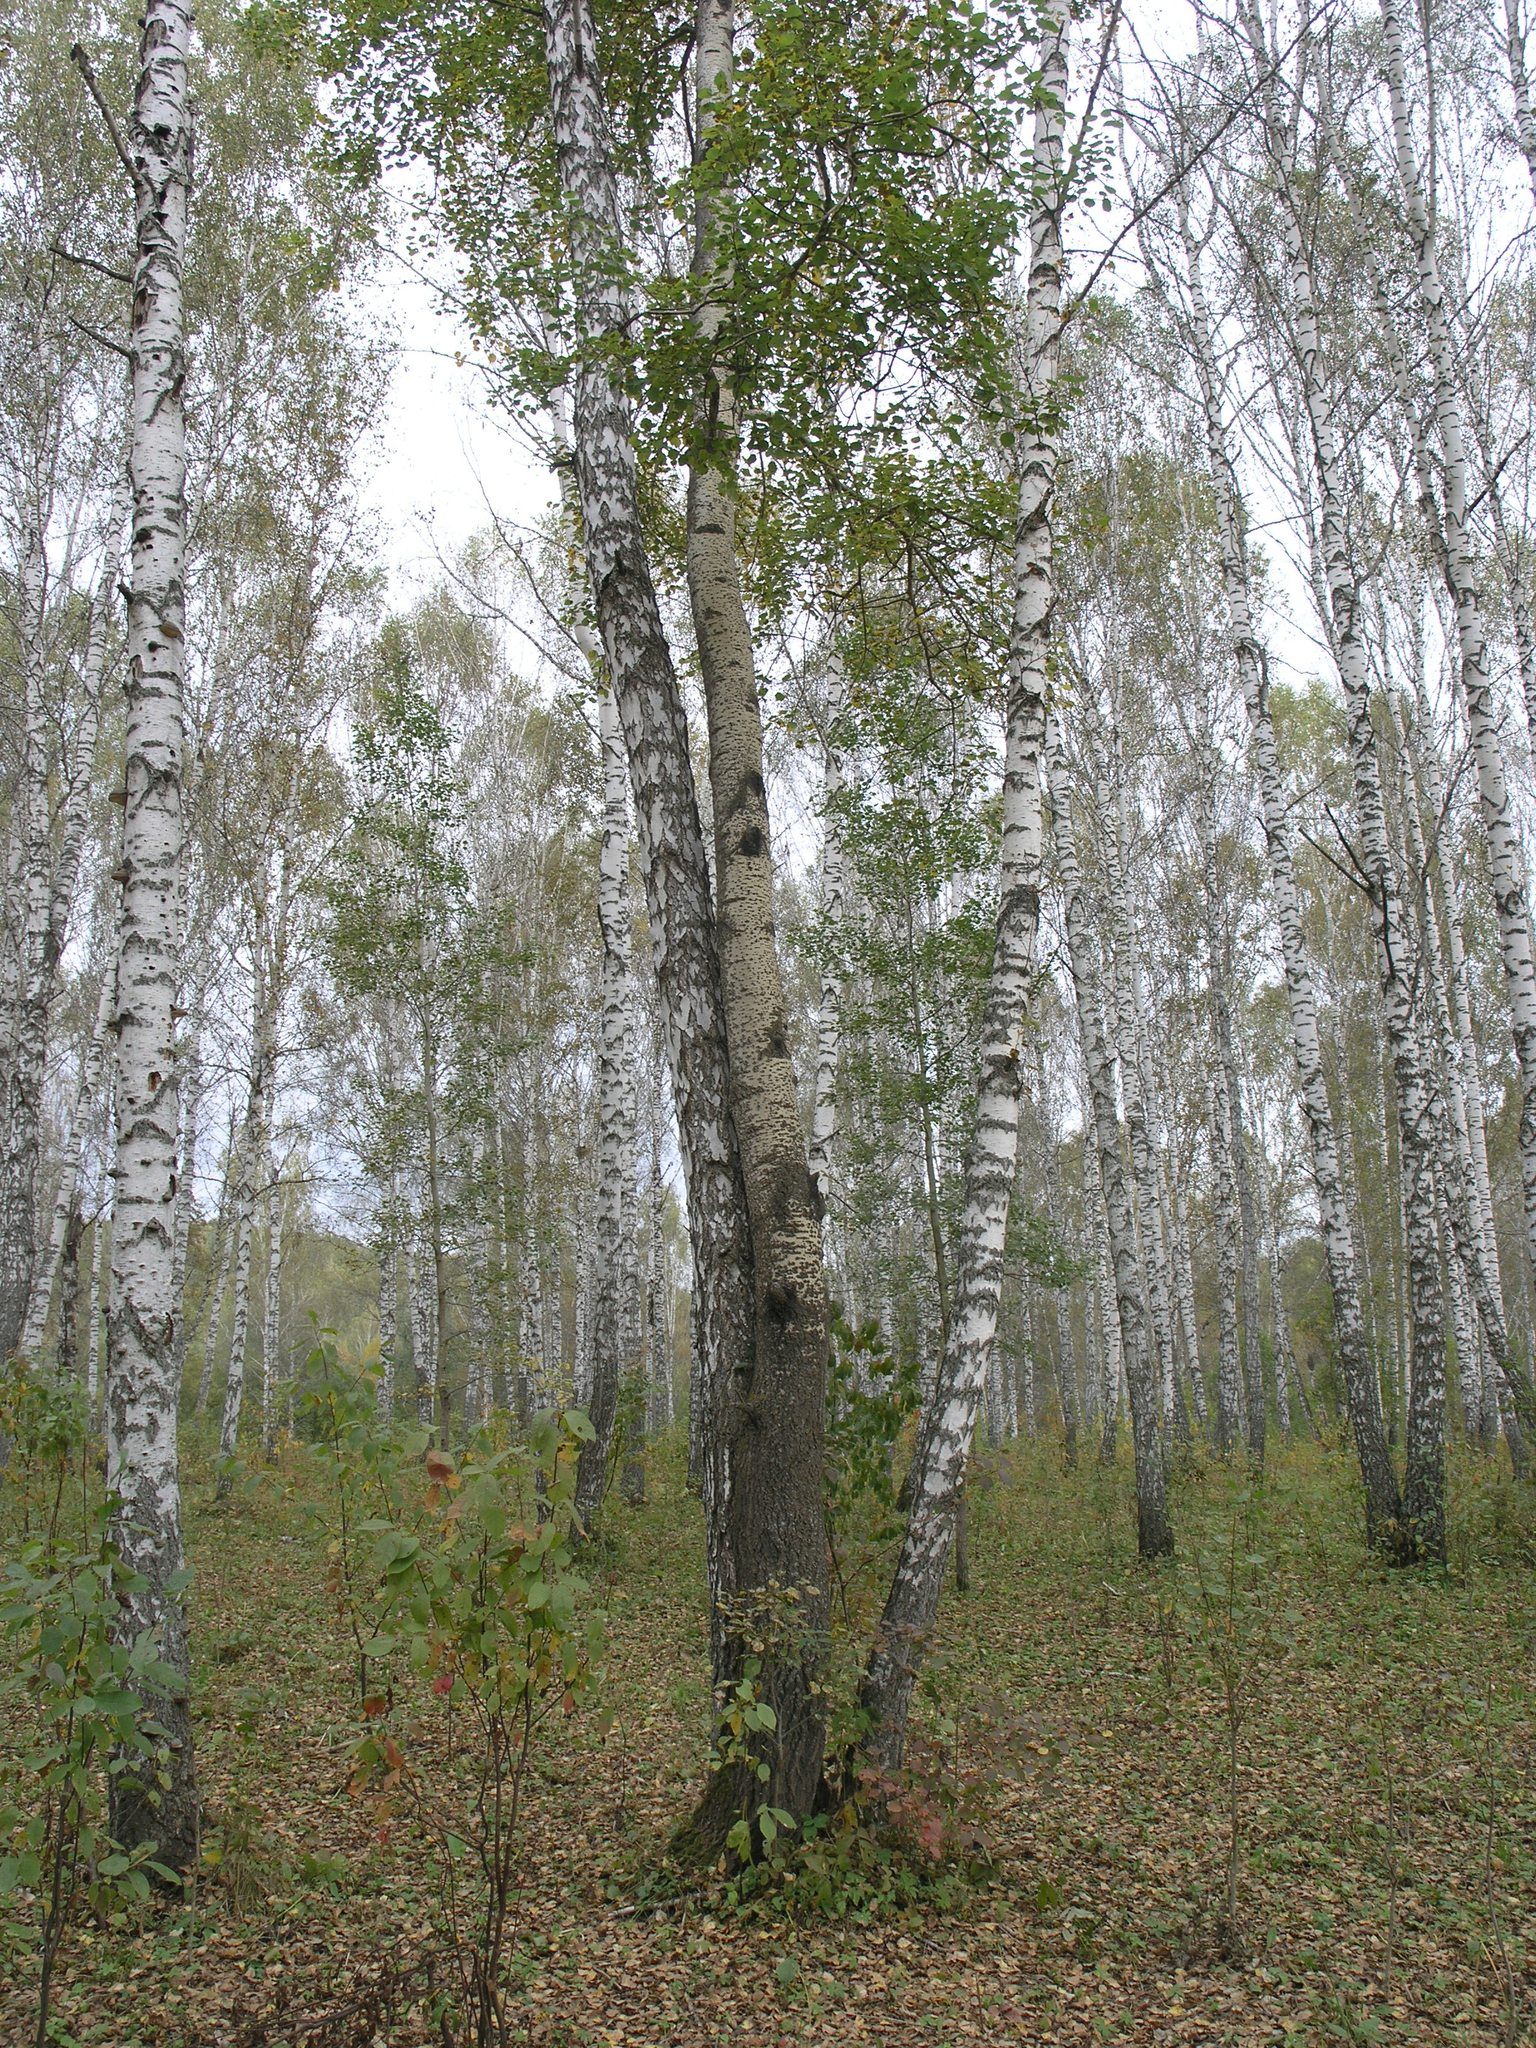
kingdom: Plantae
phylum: Tracheophyta
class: Magnoliopsida
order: Fagales
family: Betulaceae
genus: Betula
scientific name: Betula pendula
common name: Silver birch
